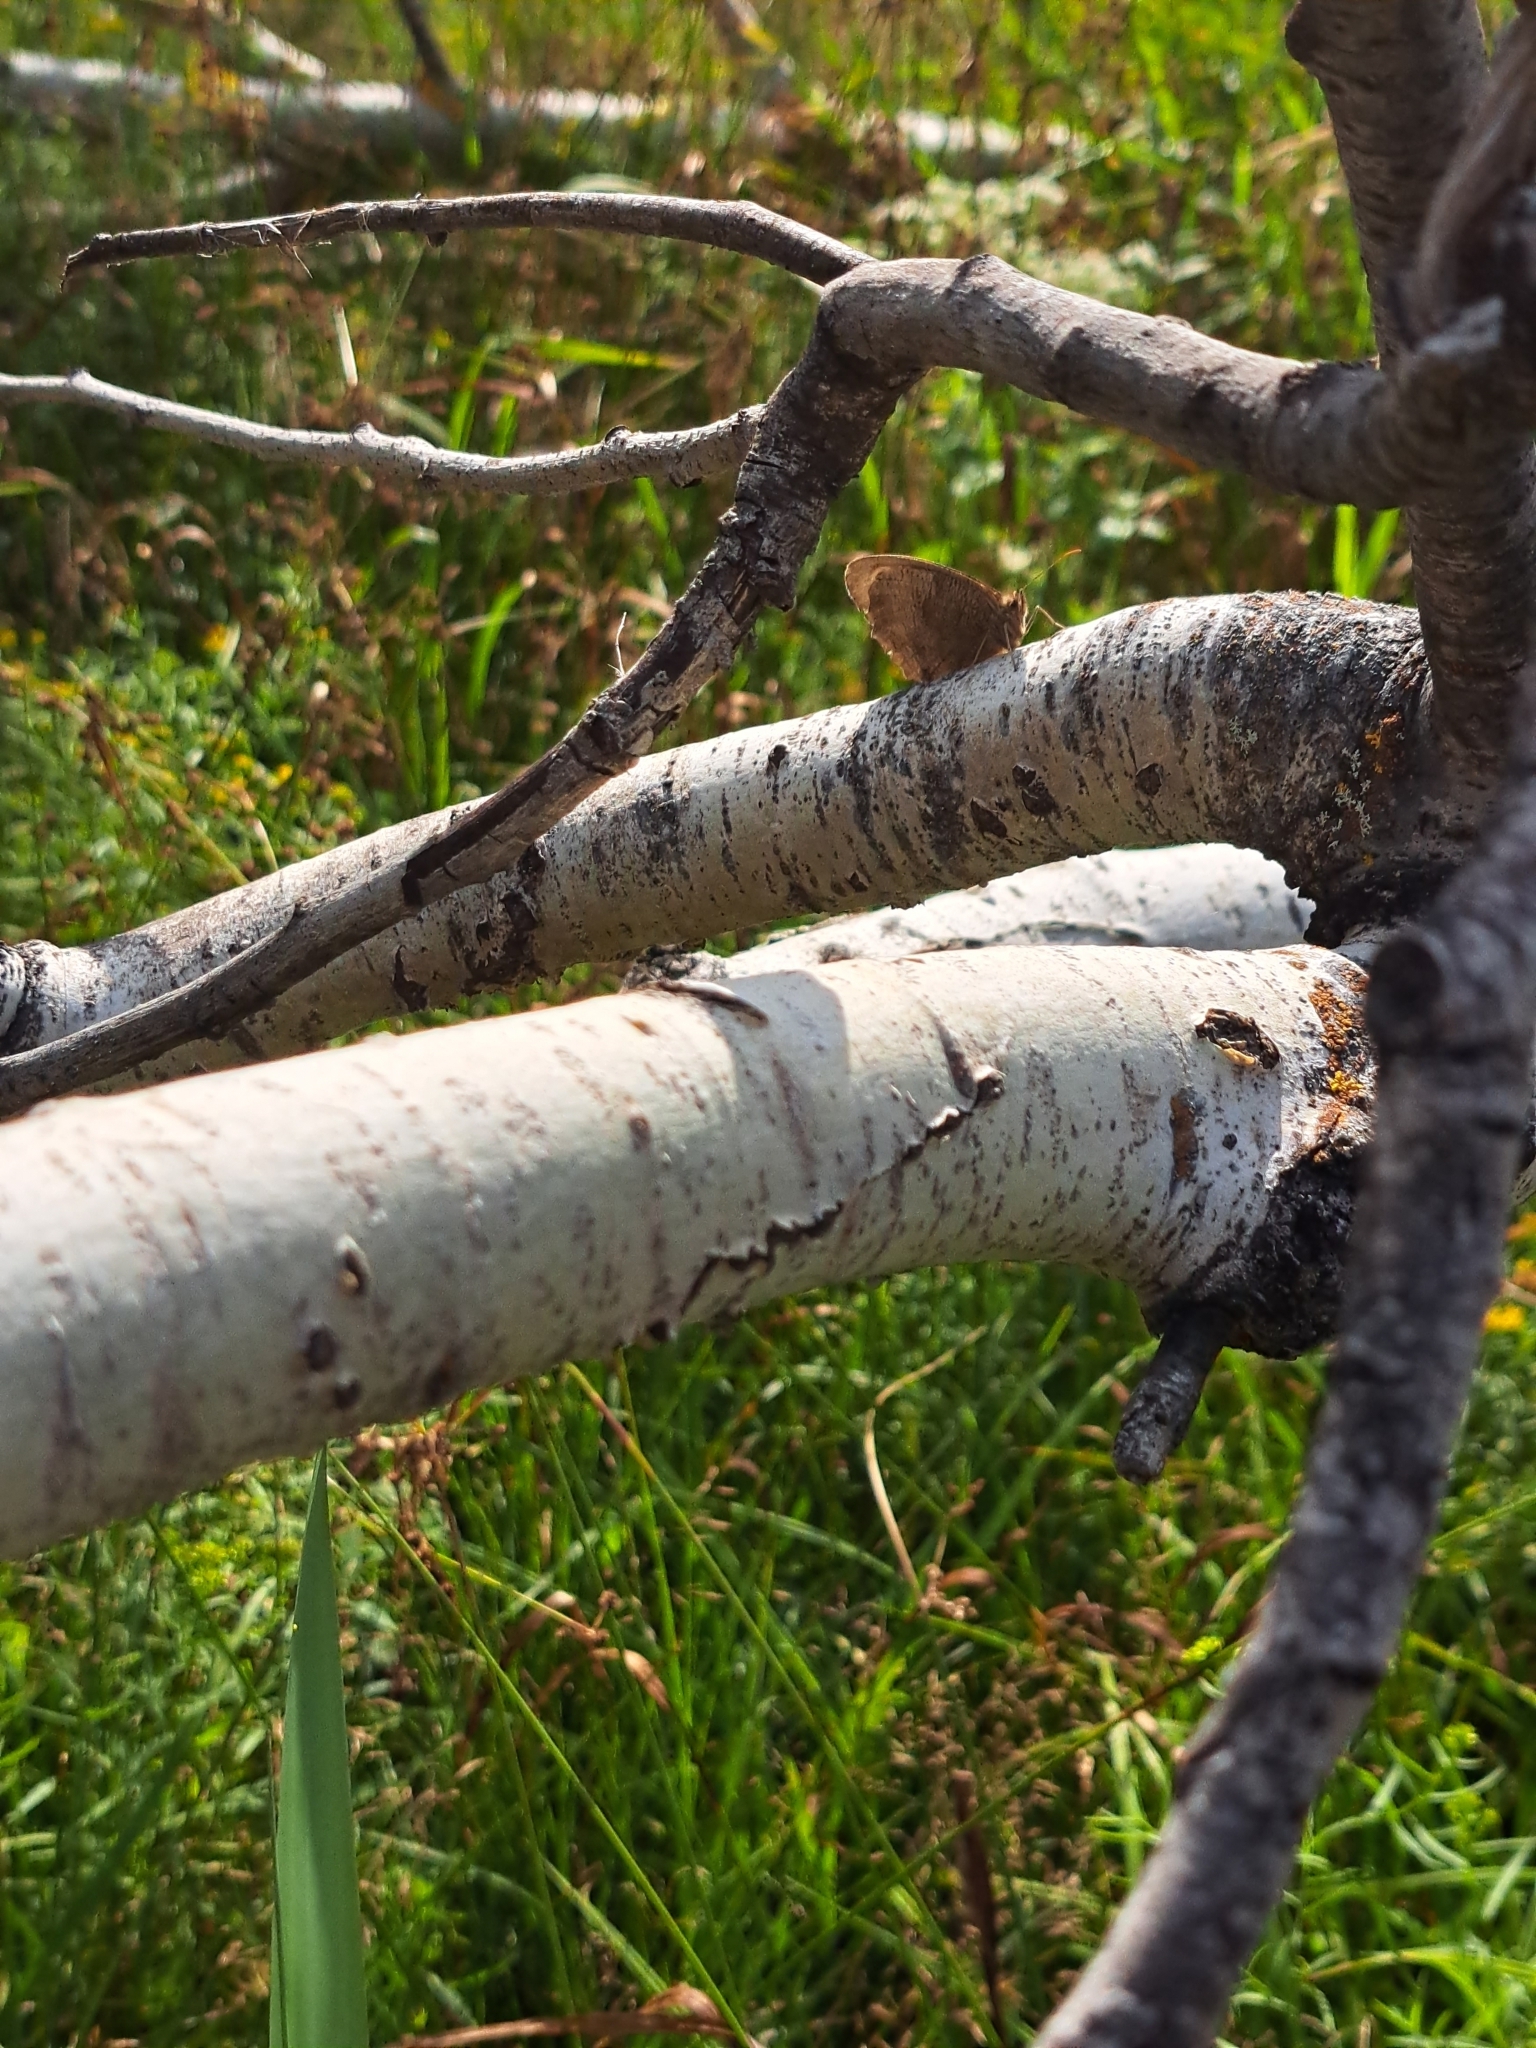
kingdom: Animalia
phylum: Arthropoda
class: Insecta
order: Lepidoptera
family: Nymphalidae
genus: Cercyonis
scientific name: Cercyonis pegala
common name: Common wood-nymph
